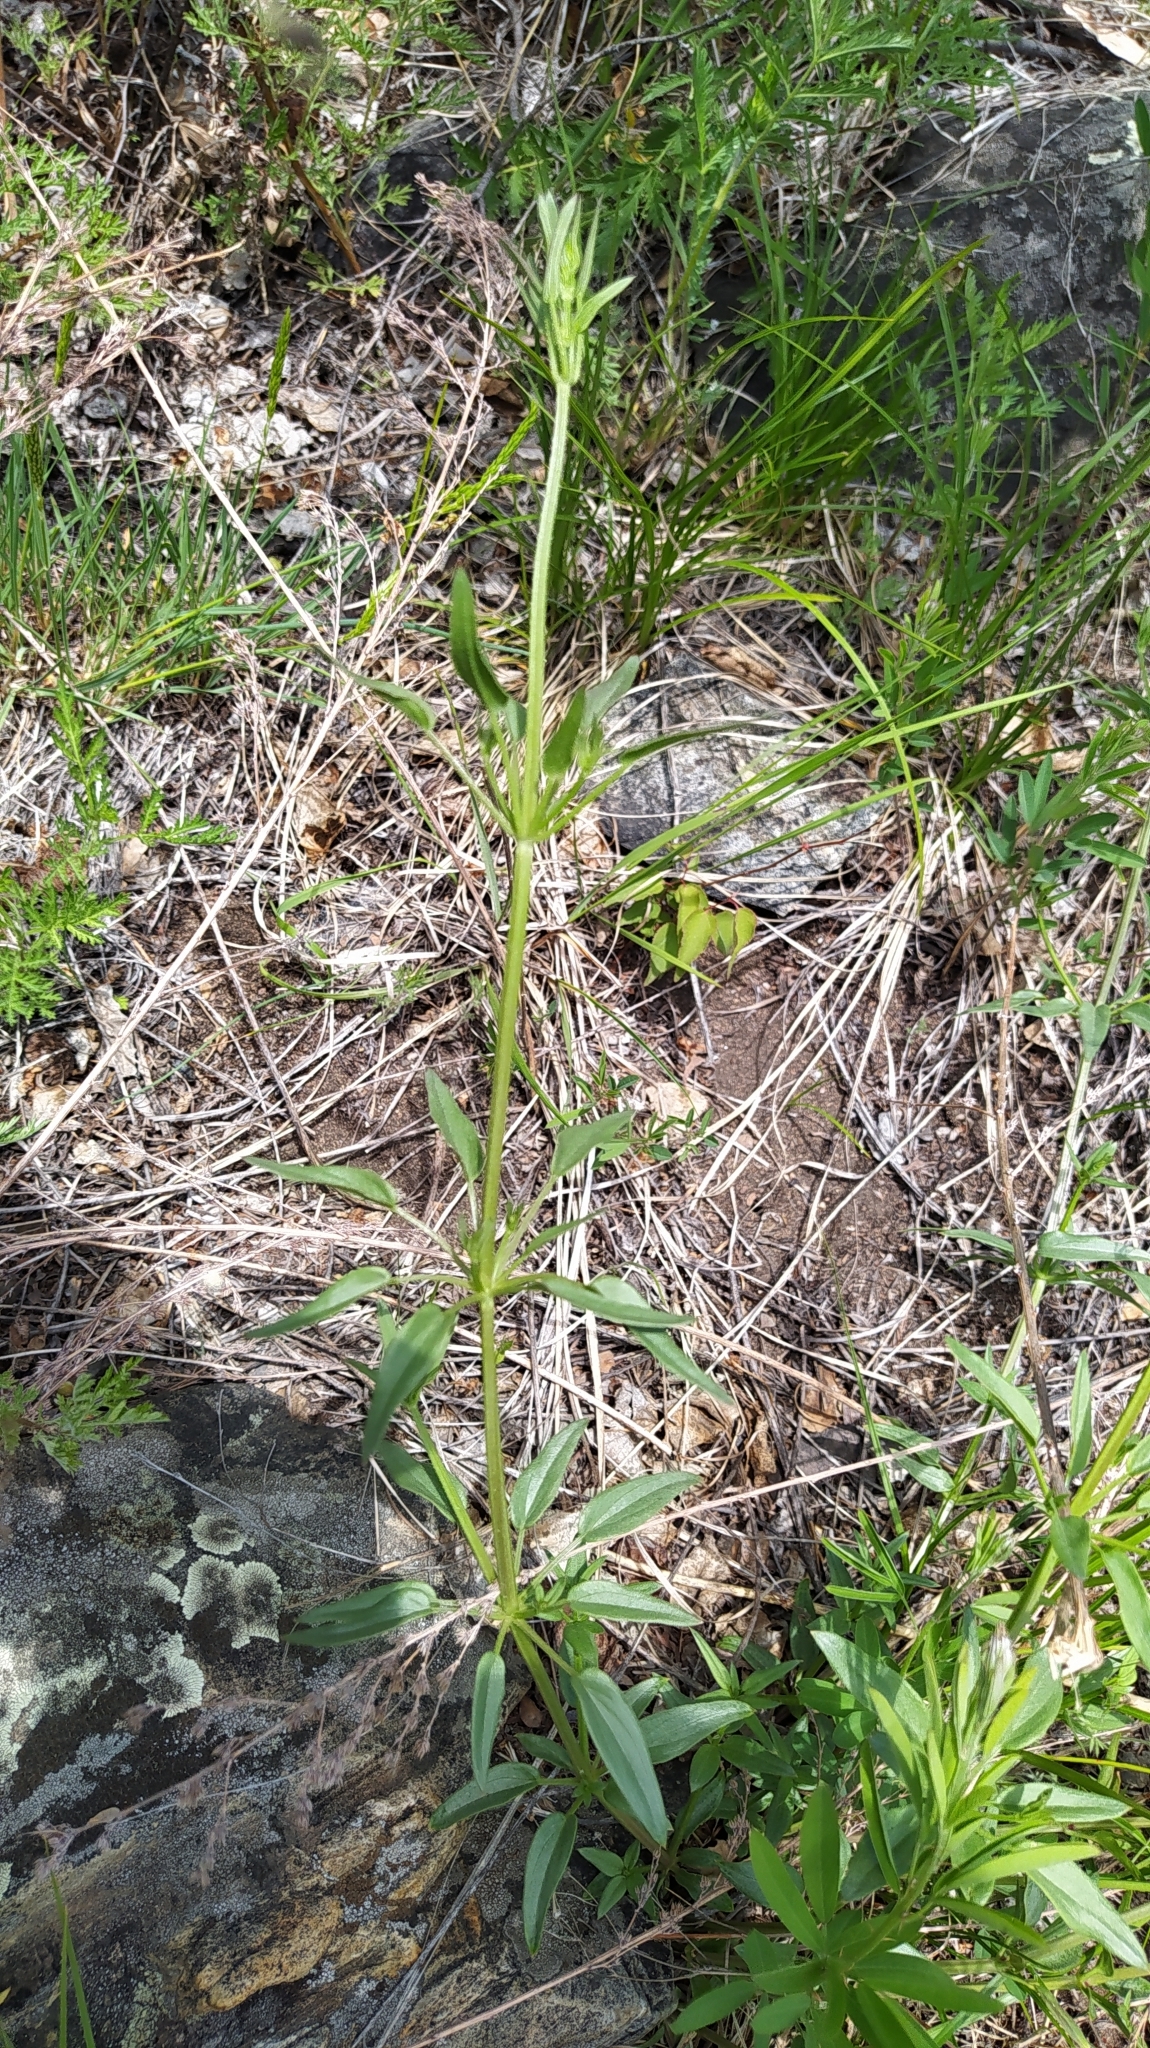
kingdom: Plantae
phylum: Tracheophyta
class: Magnoliopsida
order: Gentianales
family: Rubiaceae
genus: Rubia
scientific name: Rubia cordifolia
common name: Indian madder
